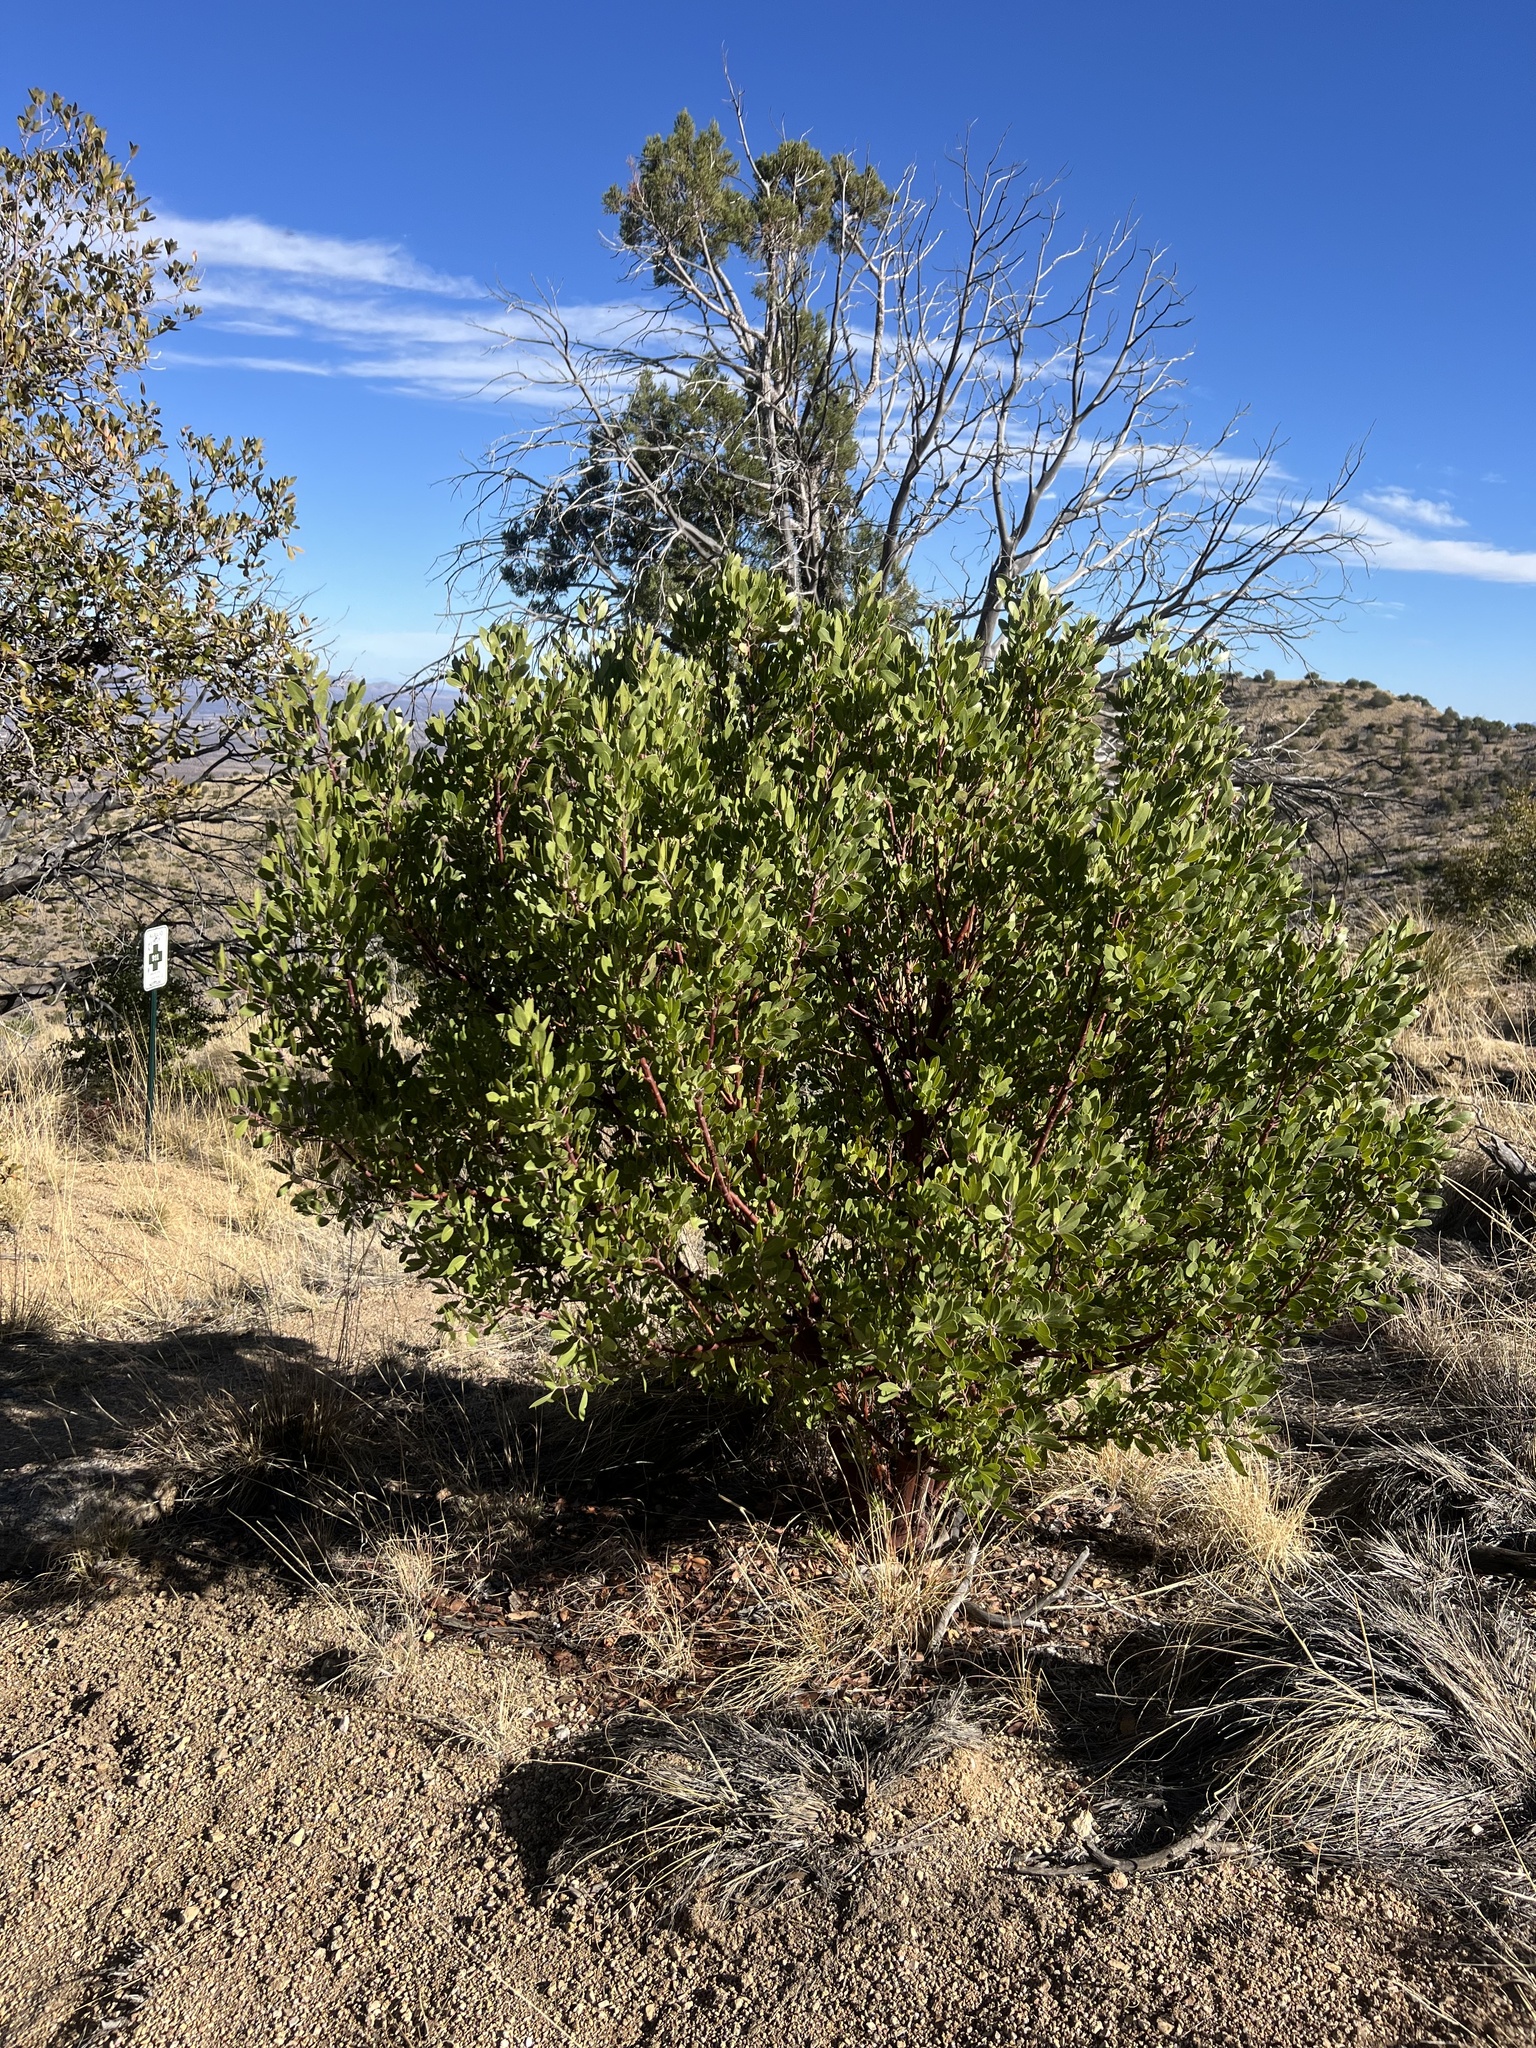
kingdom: Plantae
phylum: Tracheophyta
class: Magnoliopsida
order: Ericales
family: Ericaceae
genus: Arctostaphylos
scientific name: Arctostaphylos pungens
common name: Mexican manzanita
